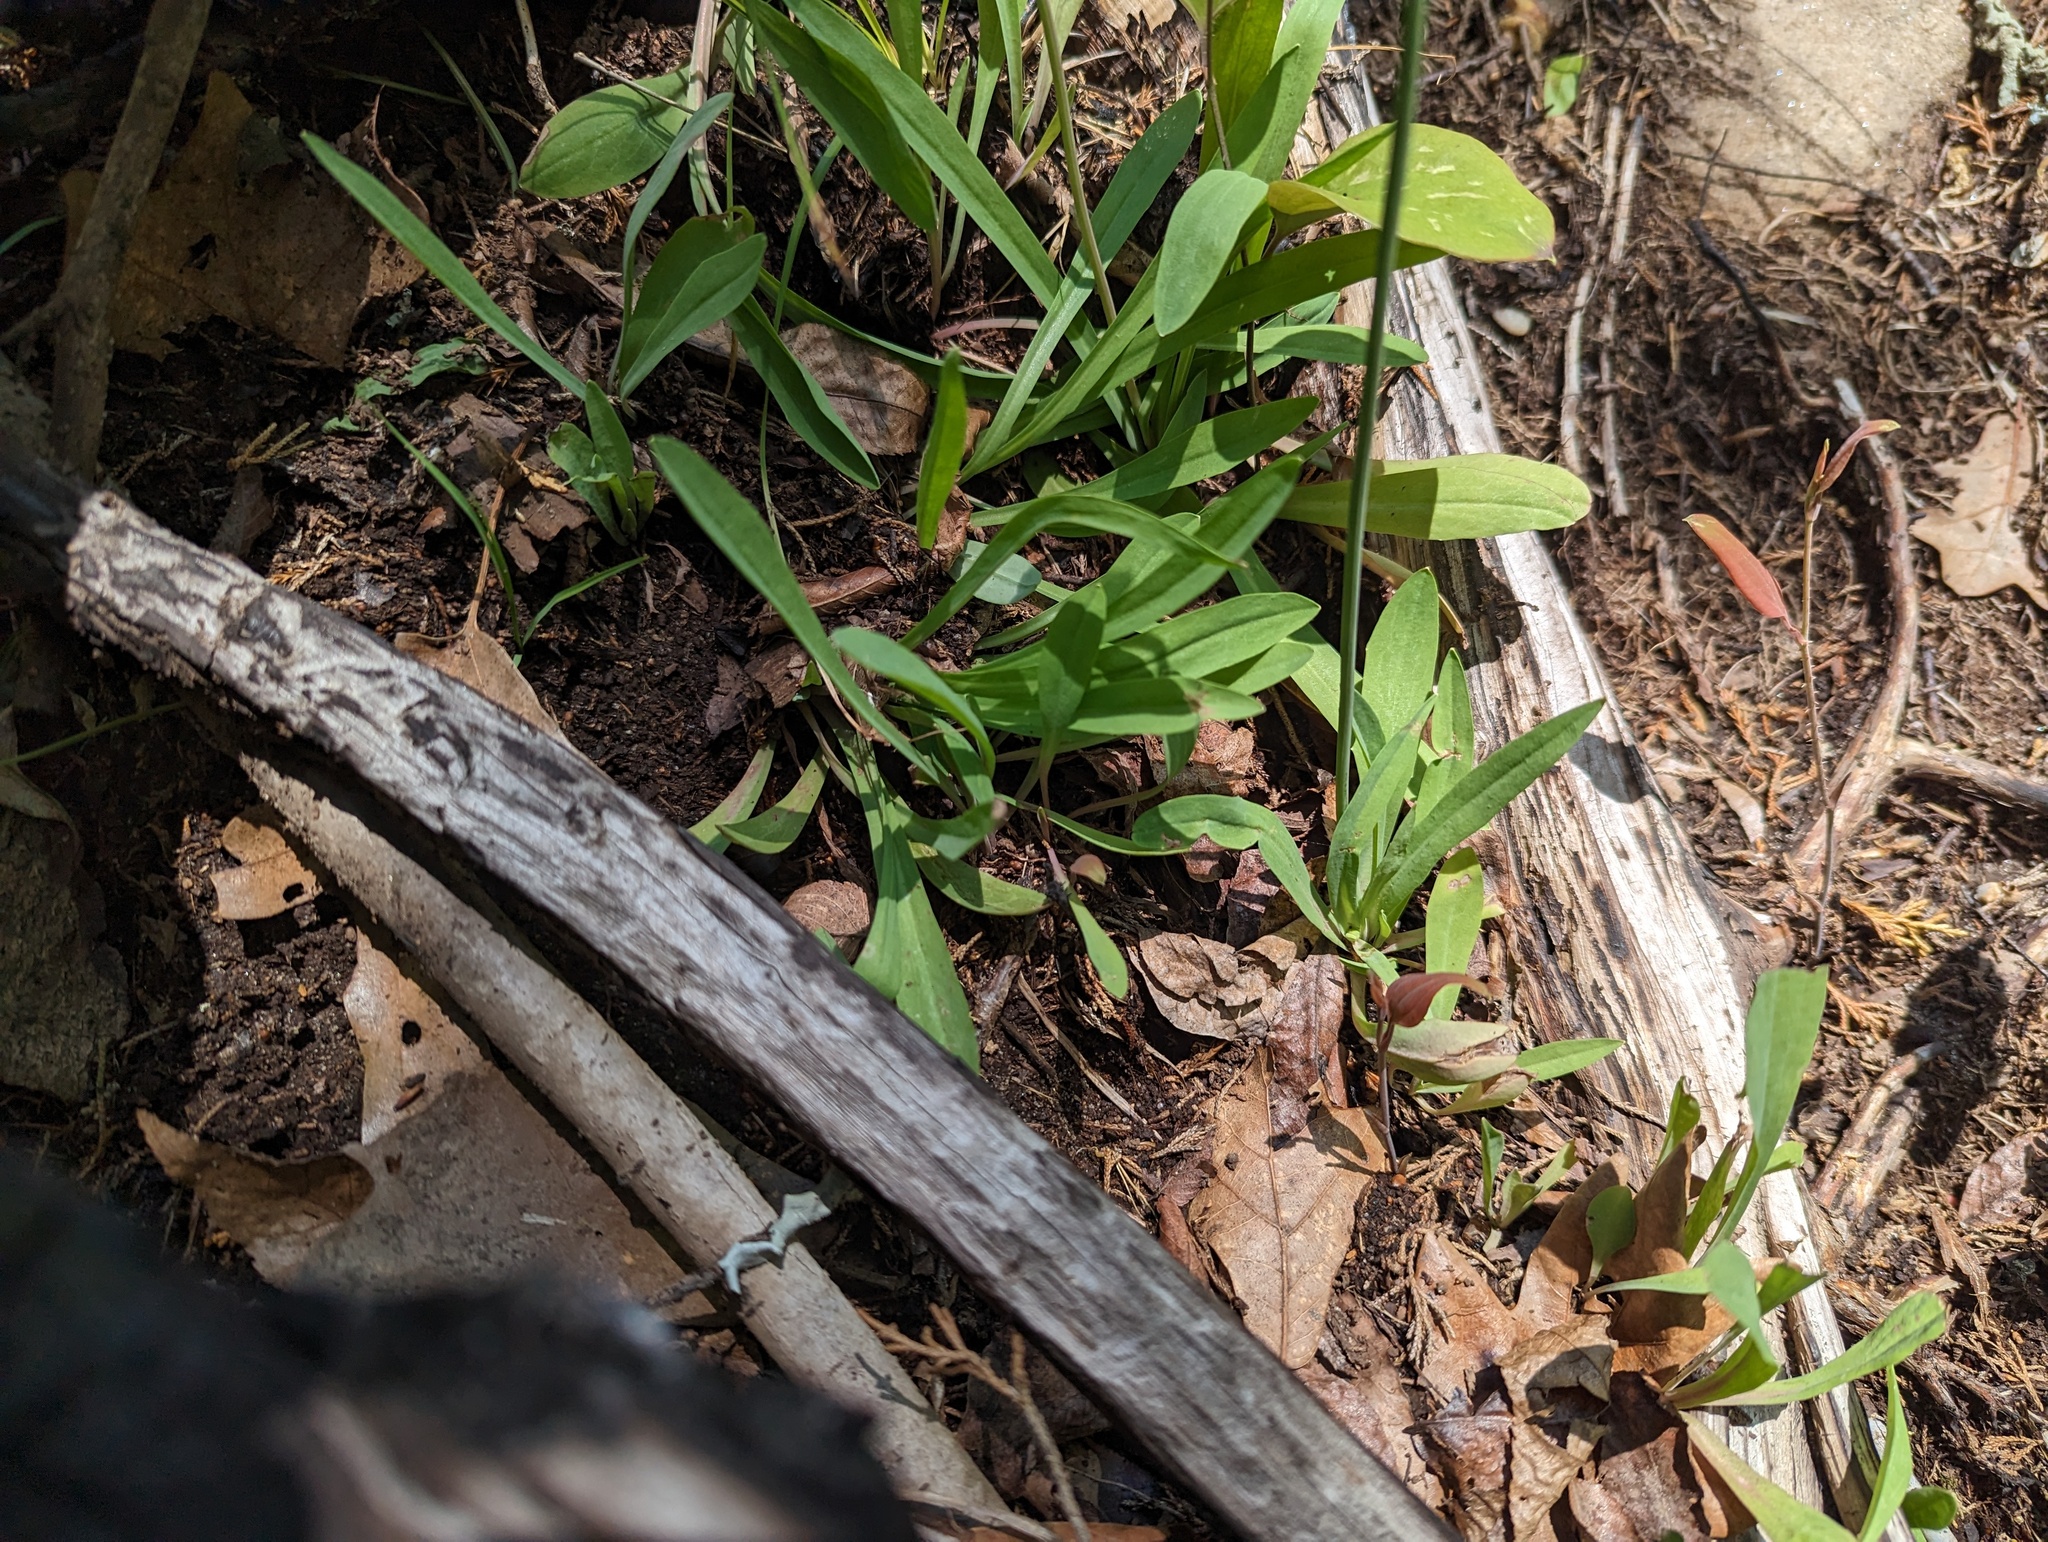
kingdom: Plantae
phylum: Tracheophyta
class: Magnoliopsida
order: Asterales
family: Asteraceae
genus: Krigia
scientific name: Krigia dandelion
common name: Colonial dwarf-dandelion
